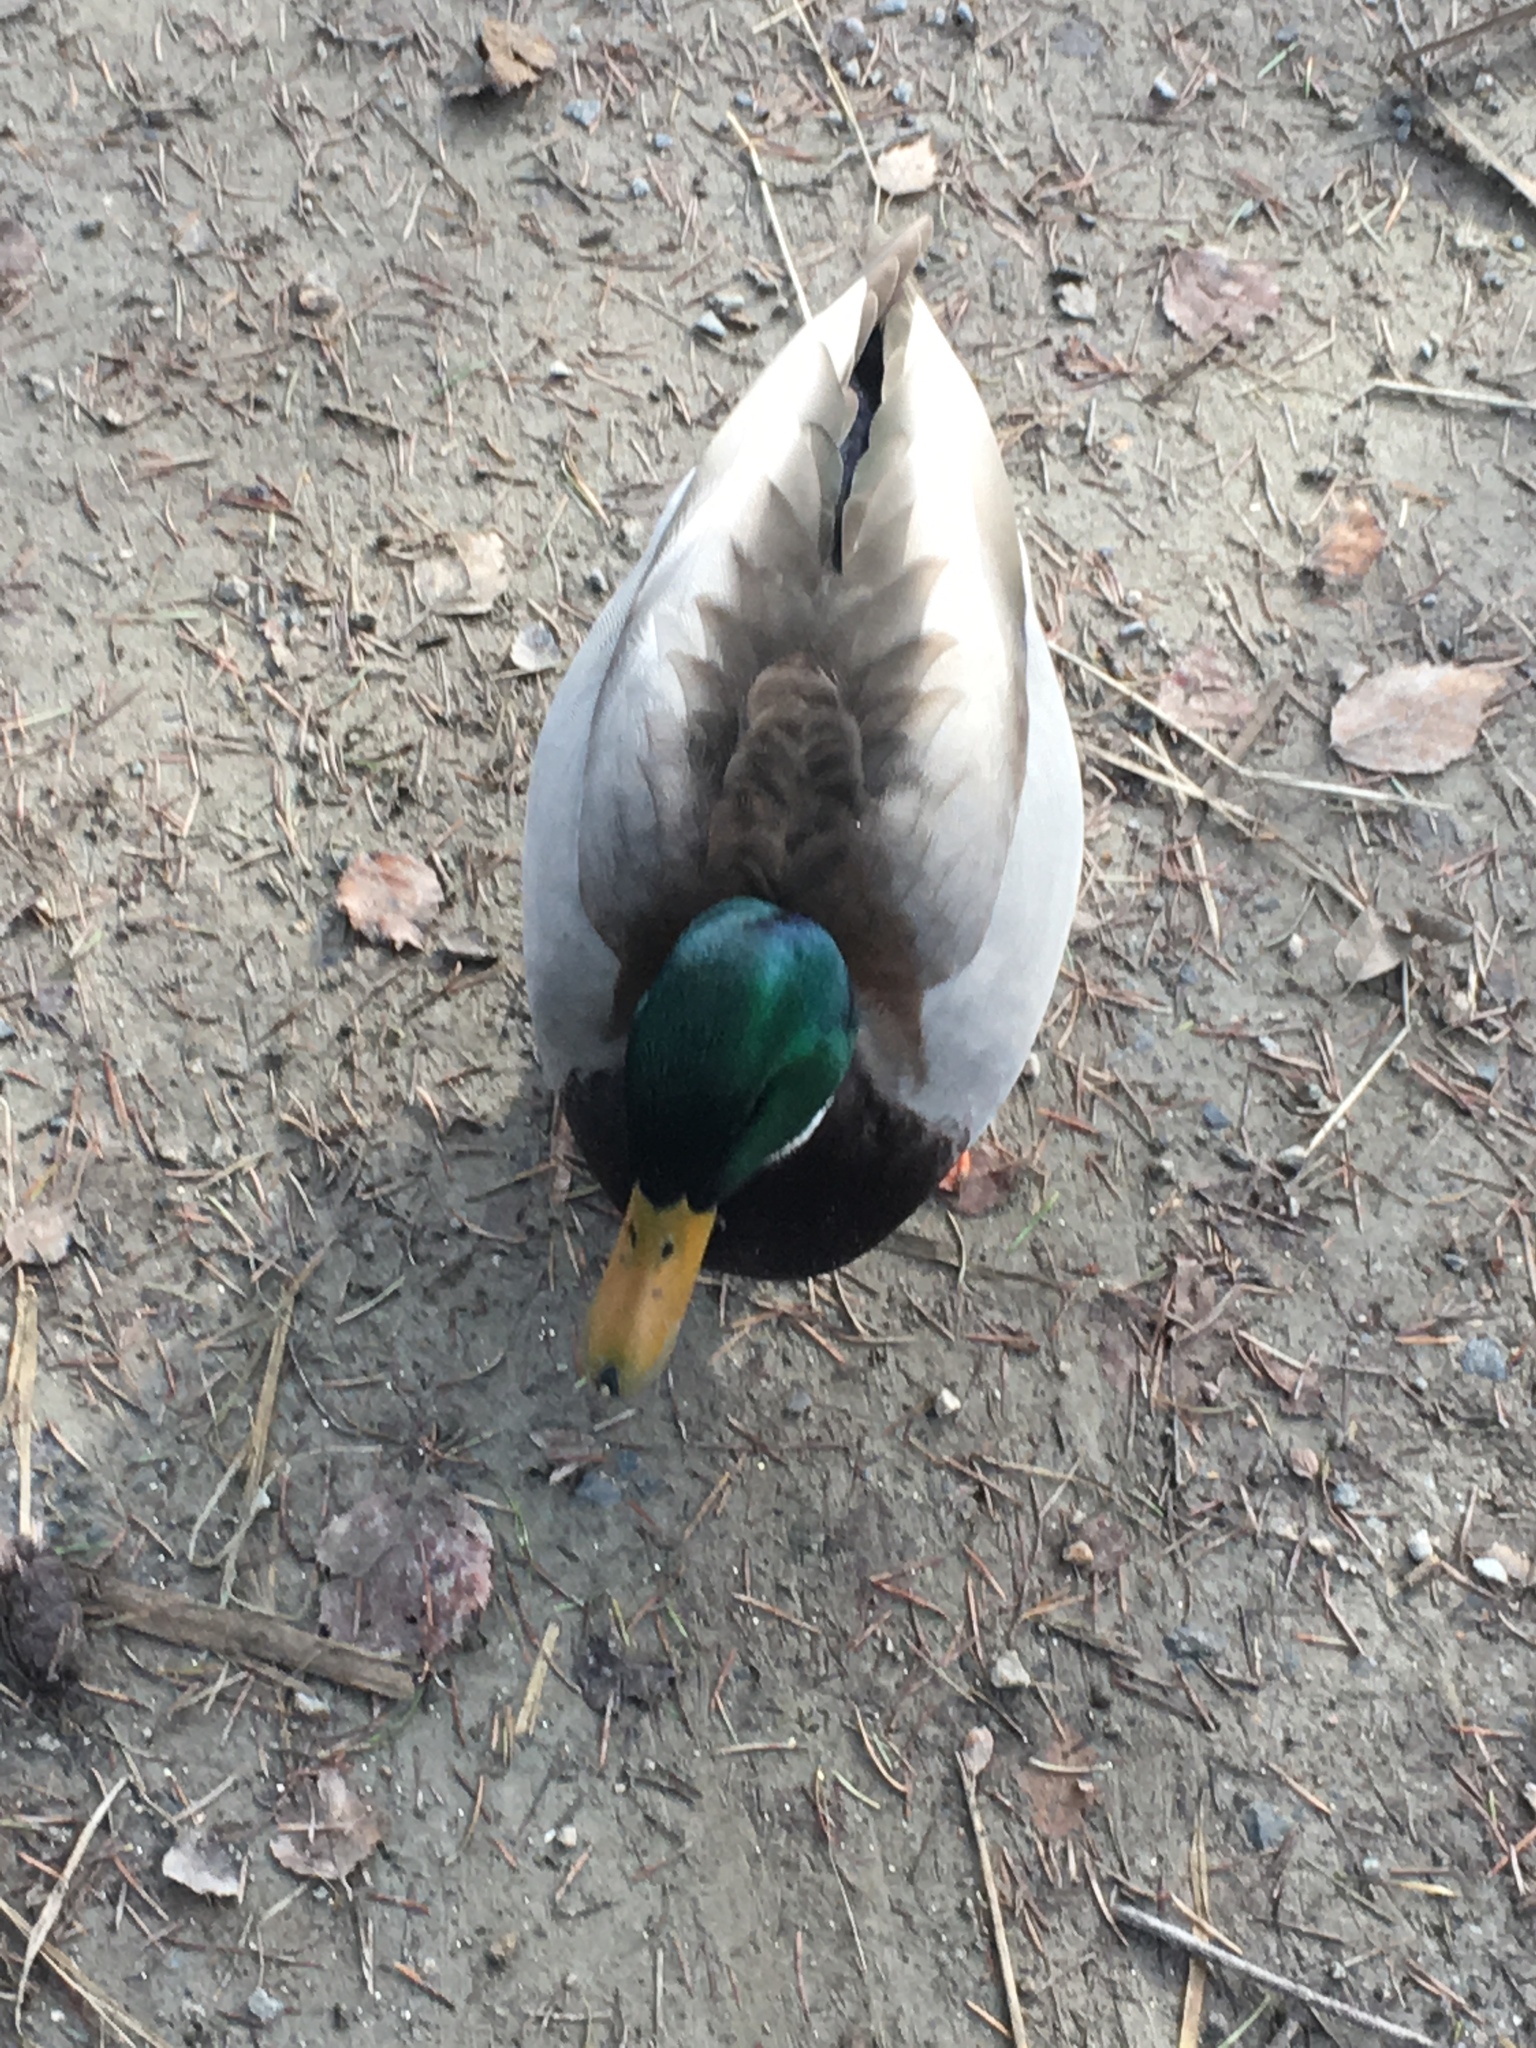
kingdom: Animalia
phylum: Chordata
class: Aves
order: Anseriformes
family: Anatidae
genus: Anas
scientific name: Anas platyrhynchos
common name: Mallard
